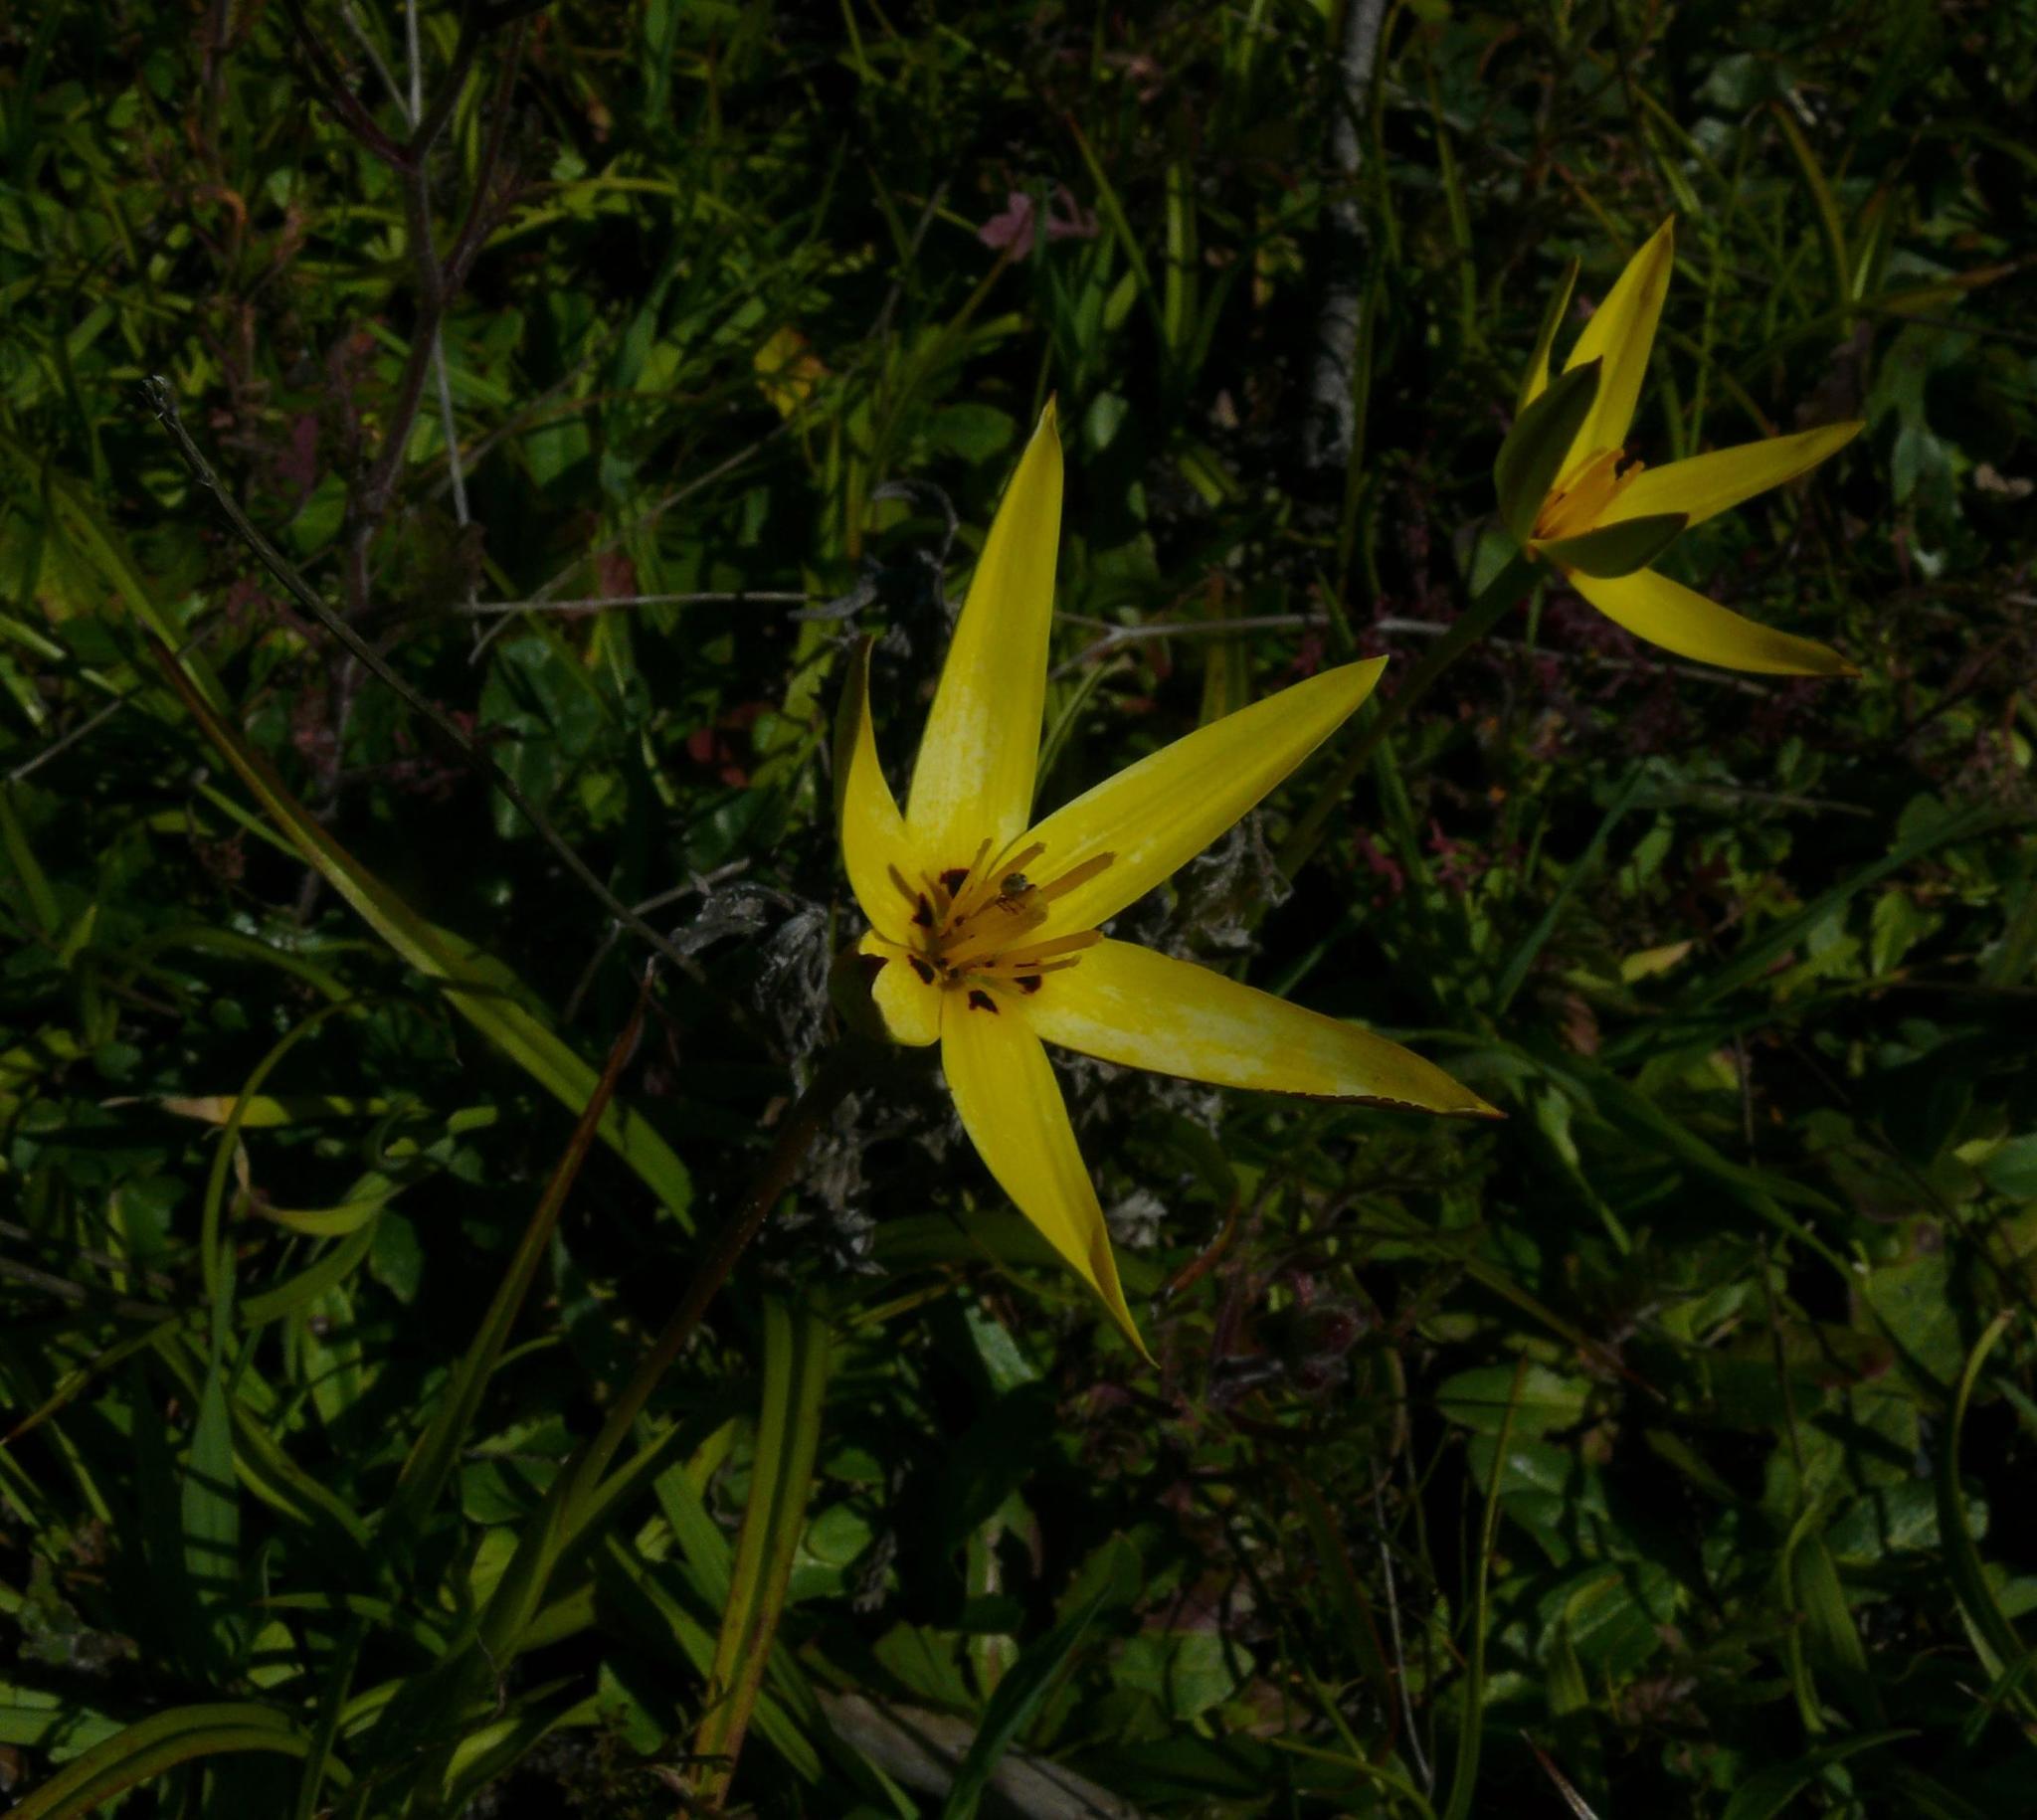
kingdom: Plantae
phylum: Tracheophyta
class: Liliopsida
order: Asparagales
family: Hypoxidaceae
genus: Pauridia
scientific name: Pauridia capensis
